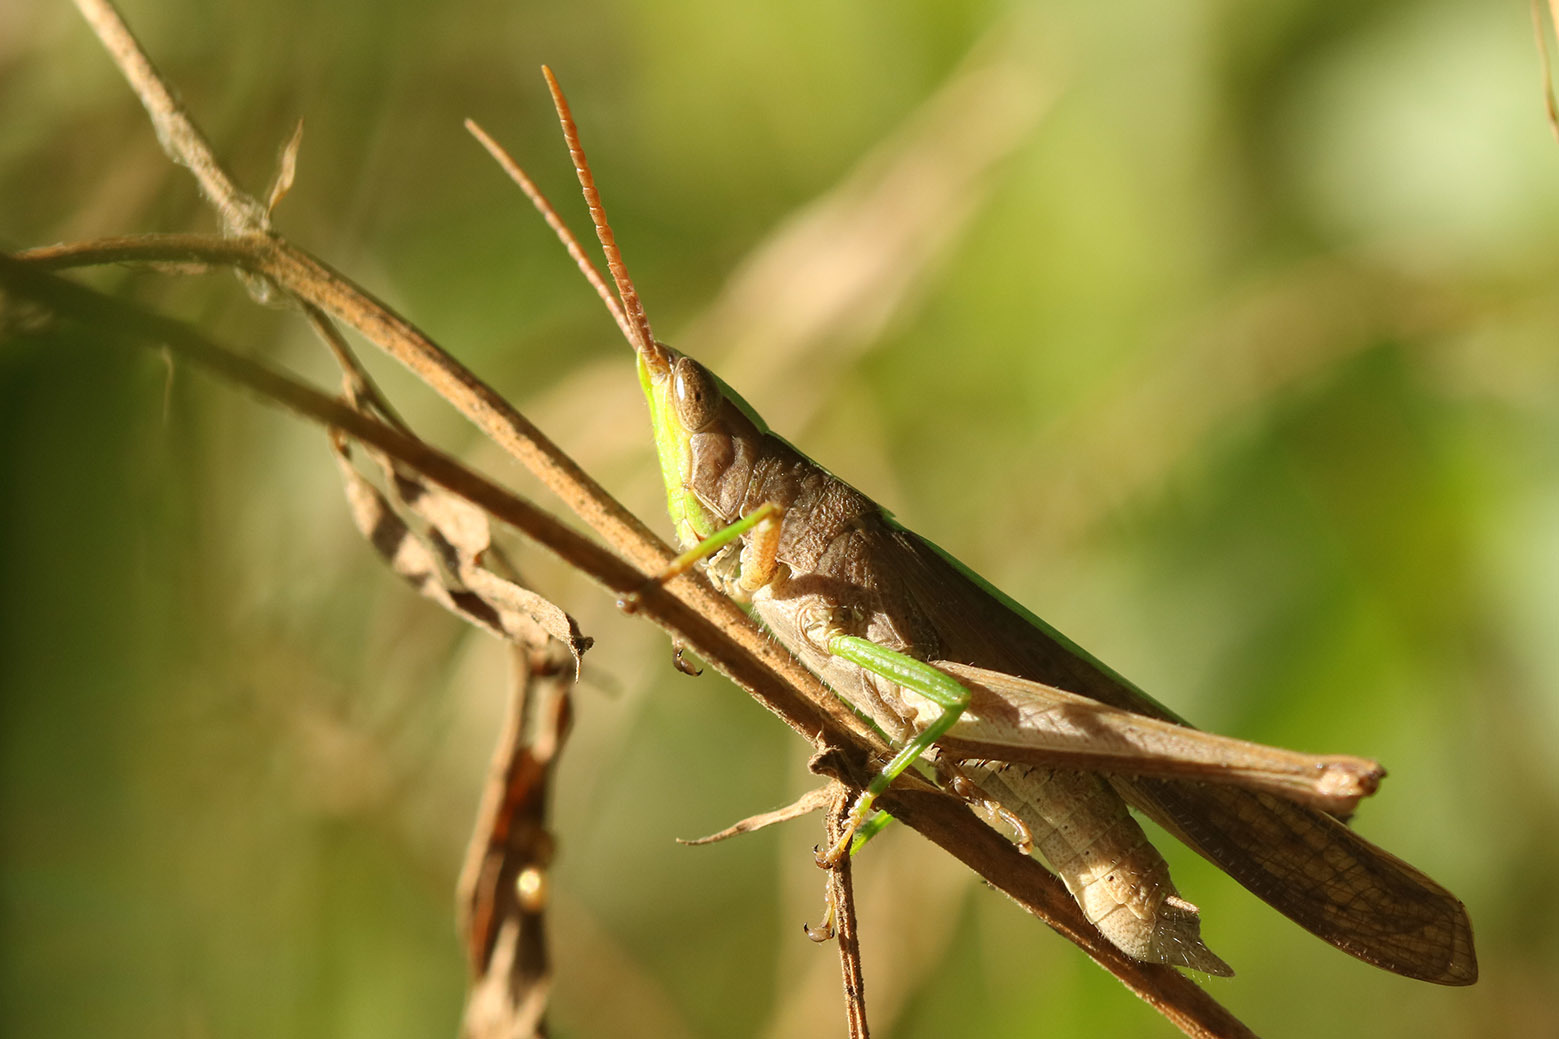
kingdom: Animalia
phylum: Arthropoda
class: Insecta
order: Orthoptera
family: Acrididae
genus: Metaleptea
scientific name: Metaleptea adspersa
